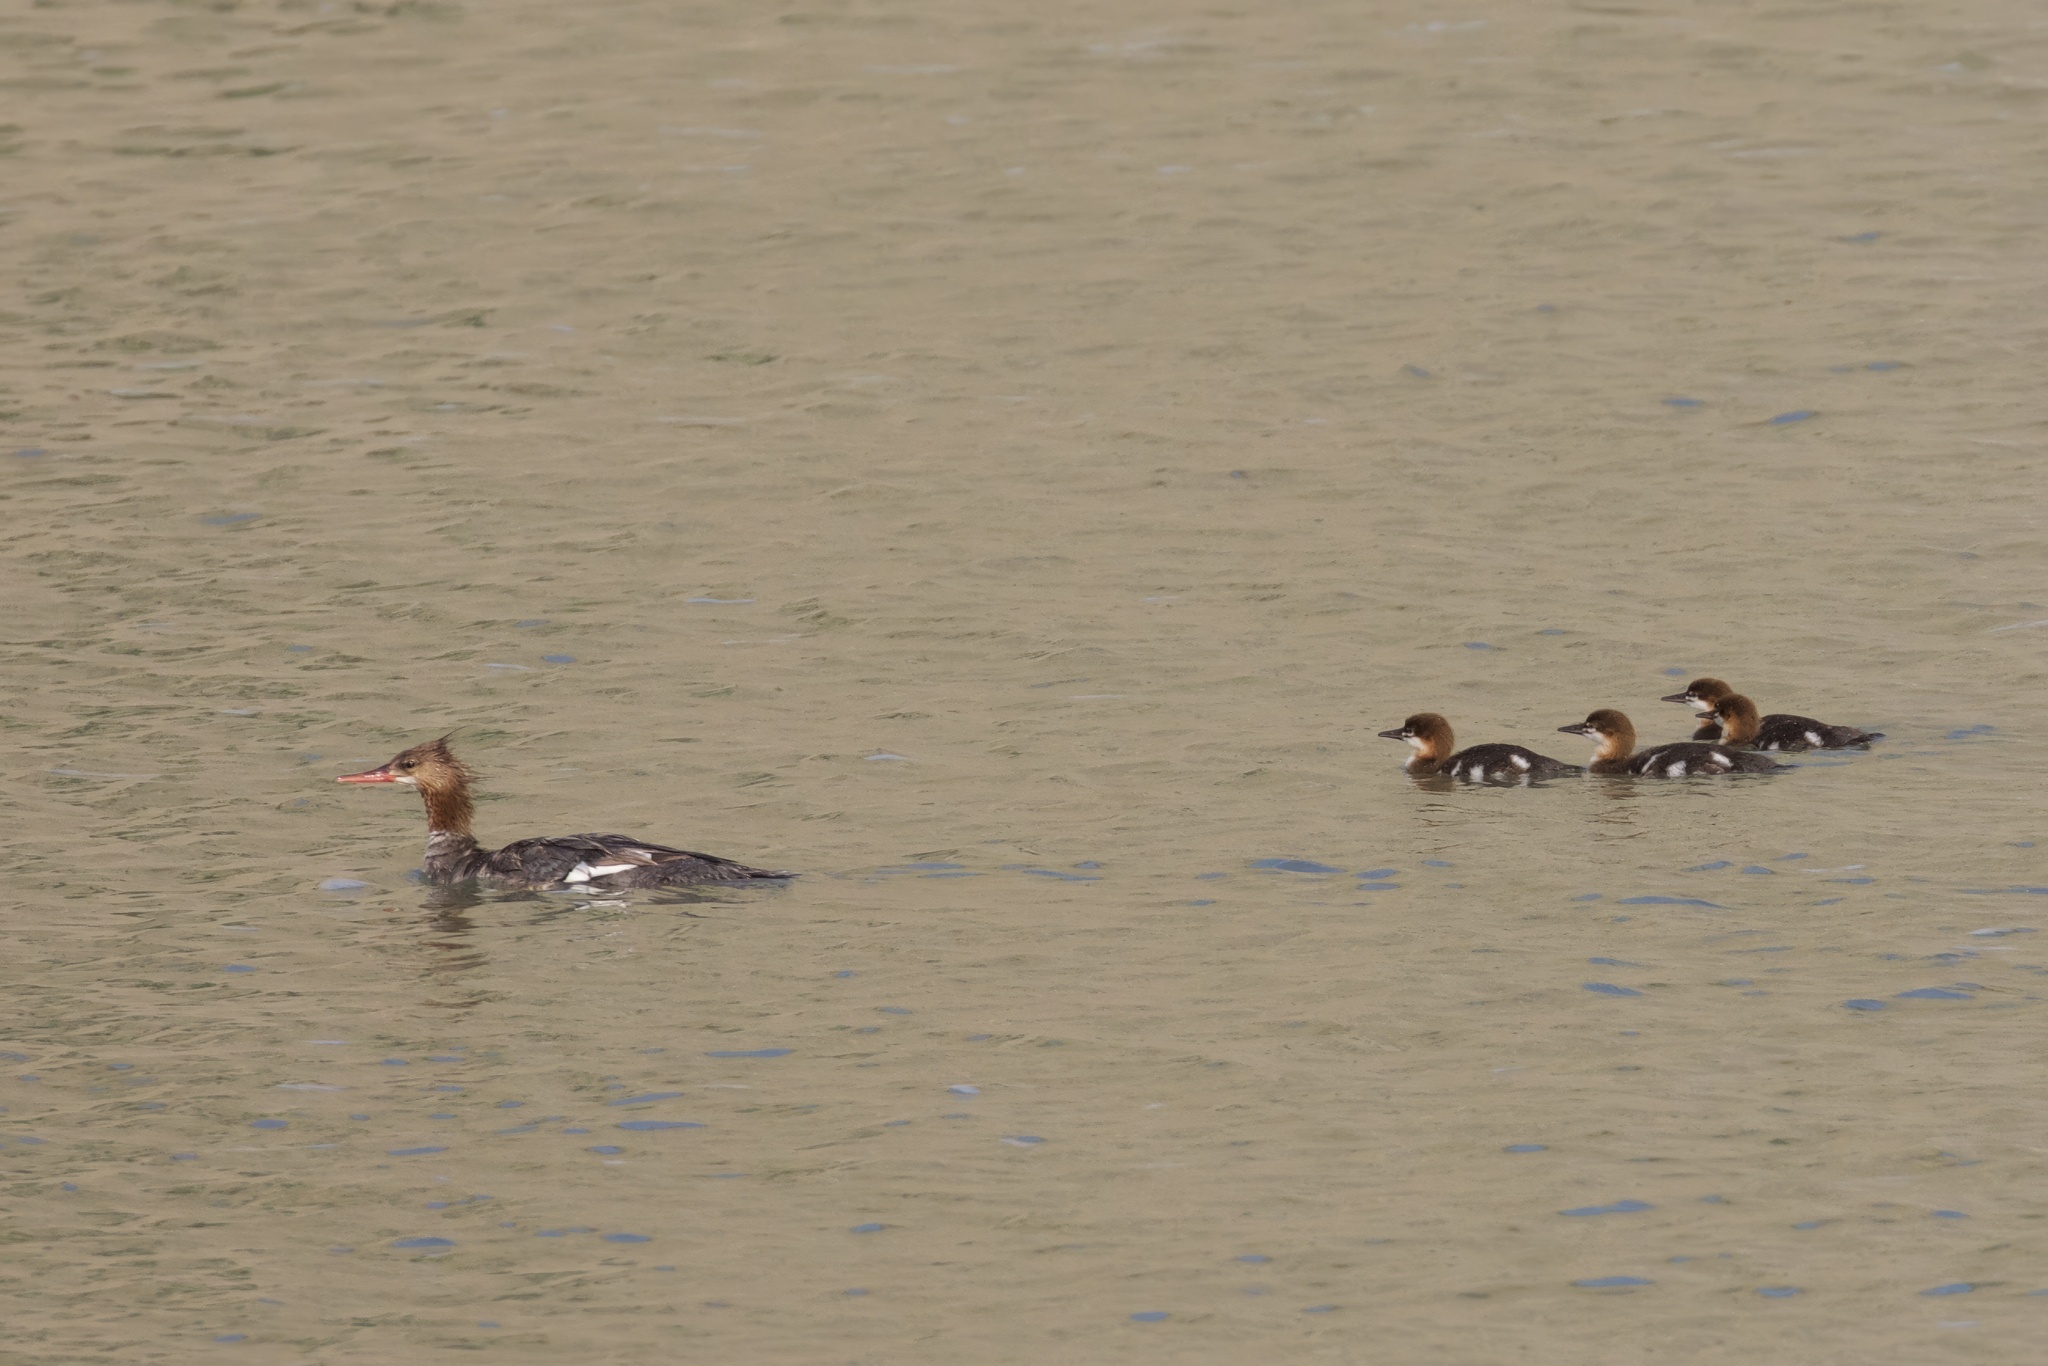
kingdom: Animalia
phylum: Chordata
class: Aves
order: Anseriformes
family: Anatidae
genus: Mergus
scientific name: Mergus merganser
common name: Common merganser
